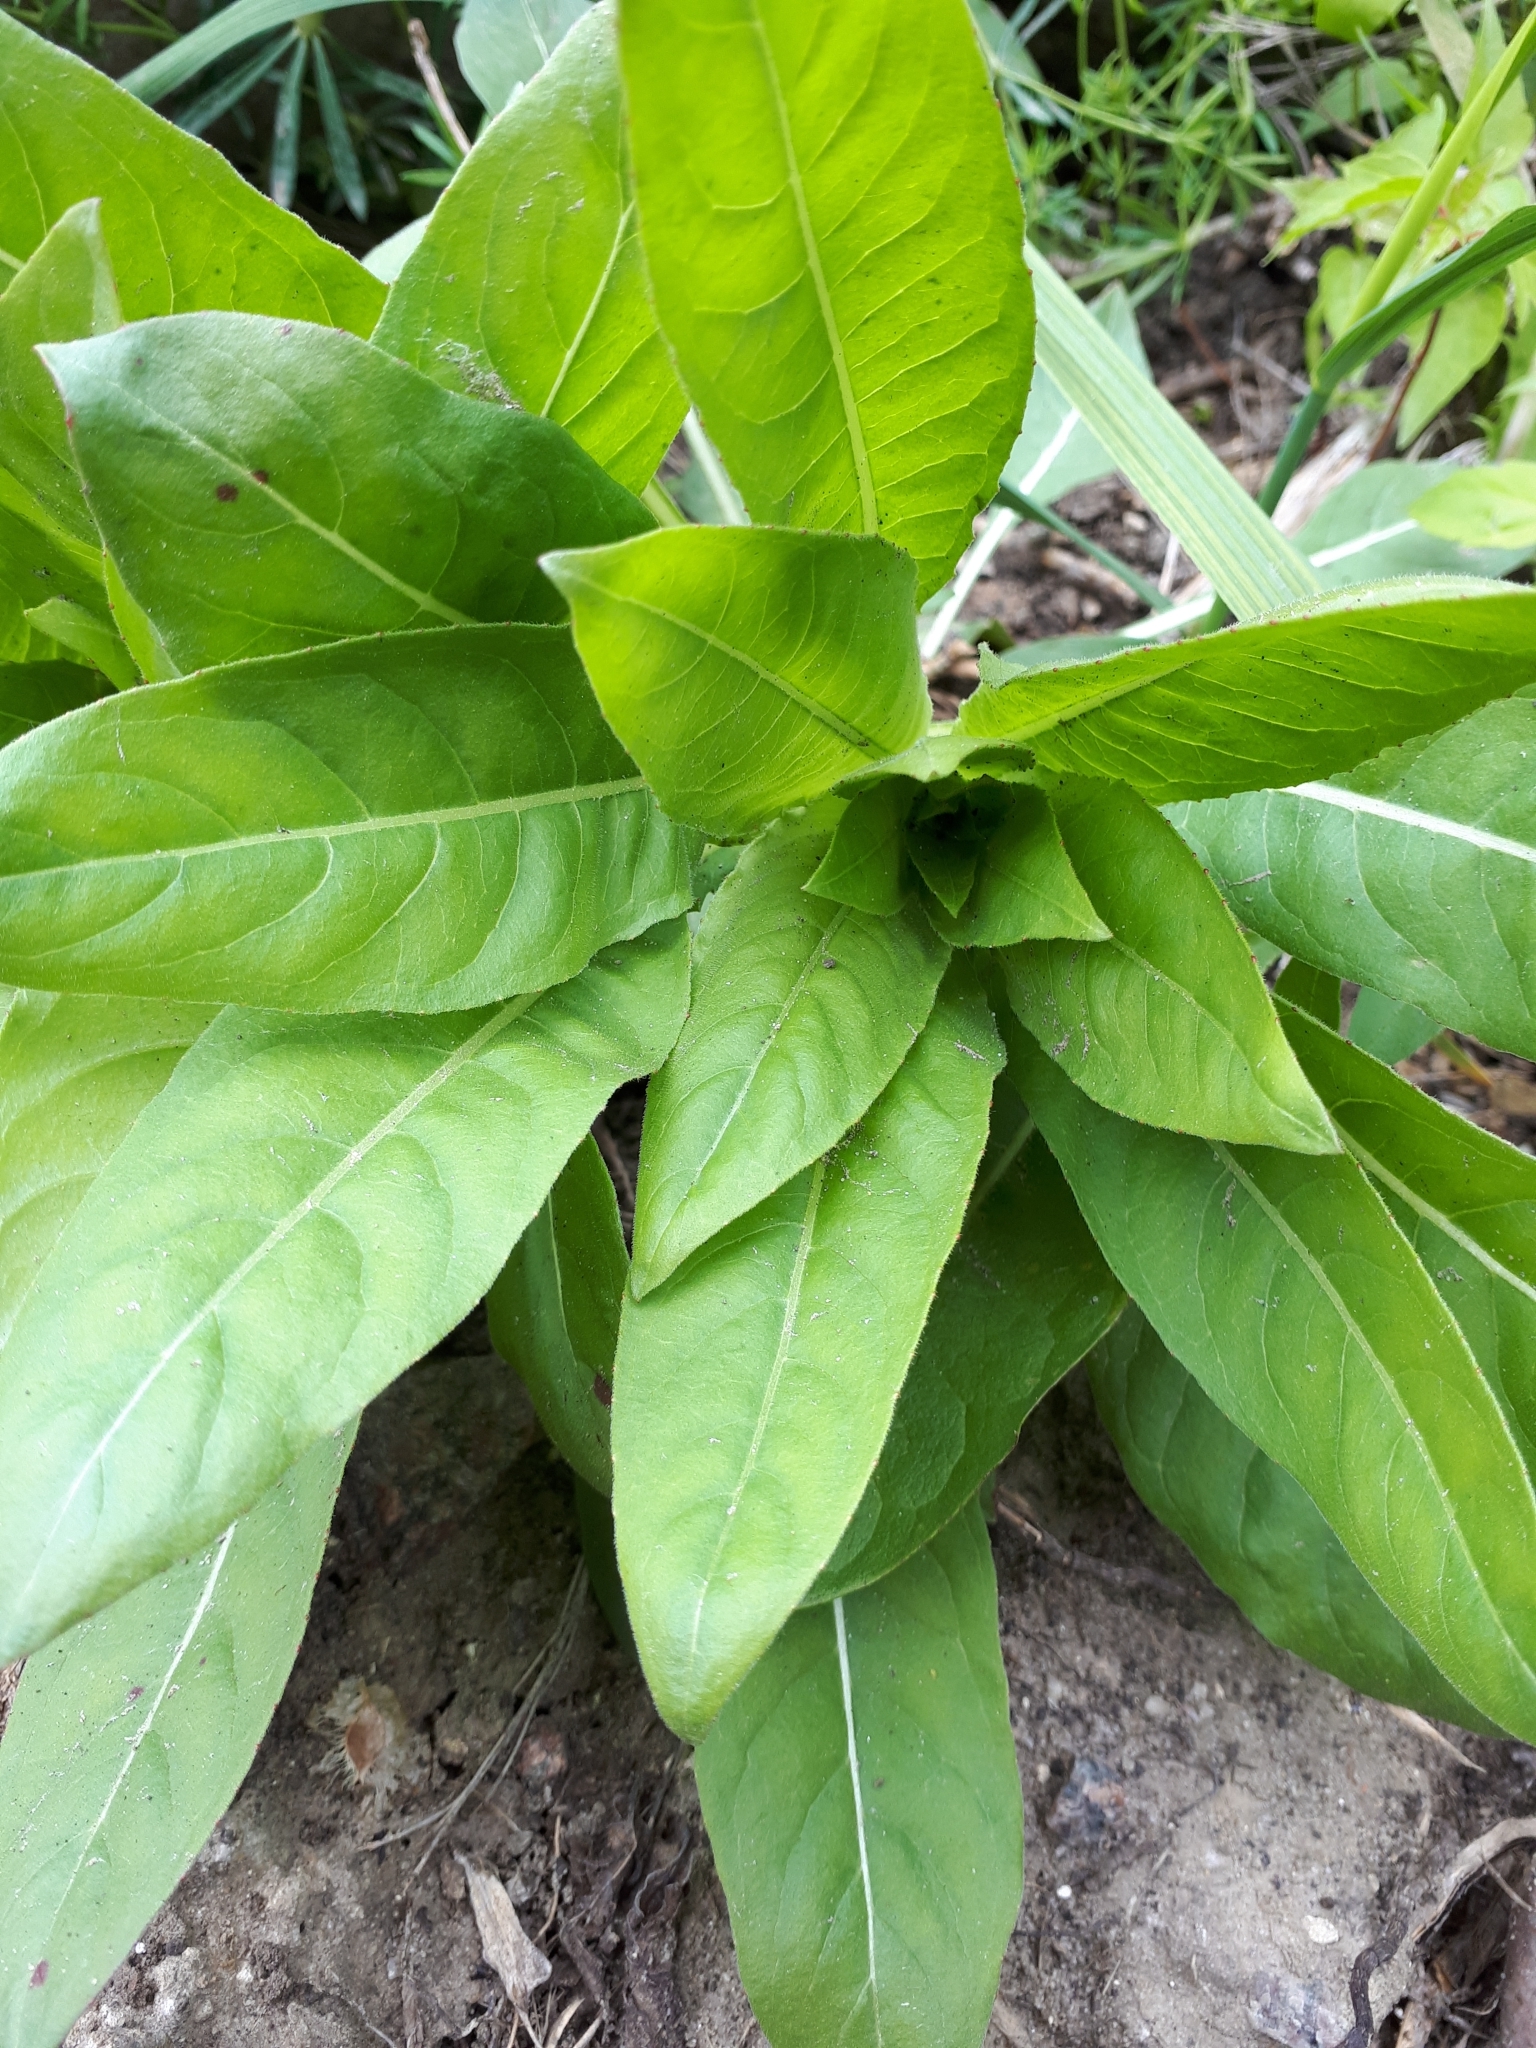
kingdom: Plantae
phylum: Tracheophyta
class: Magnoliopsida
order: Myrtales
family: Onagraceae
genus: Oenothera
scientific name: Oenothera
